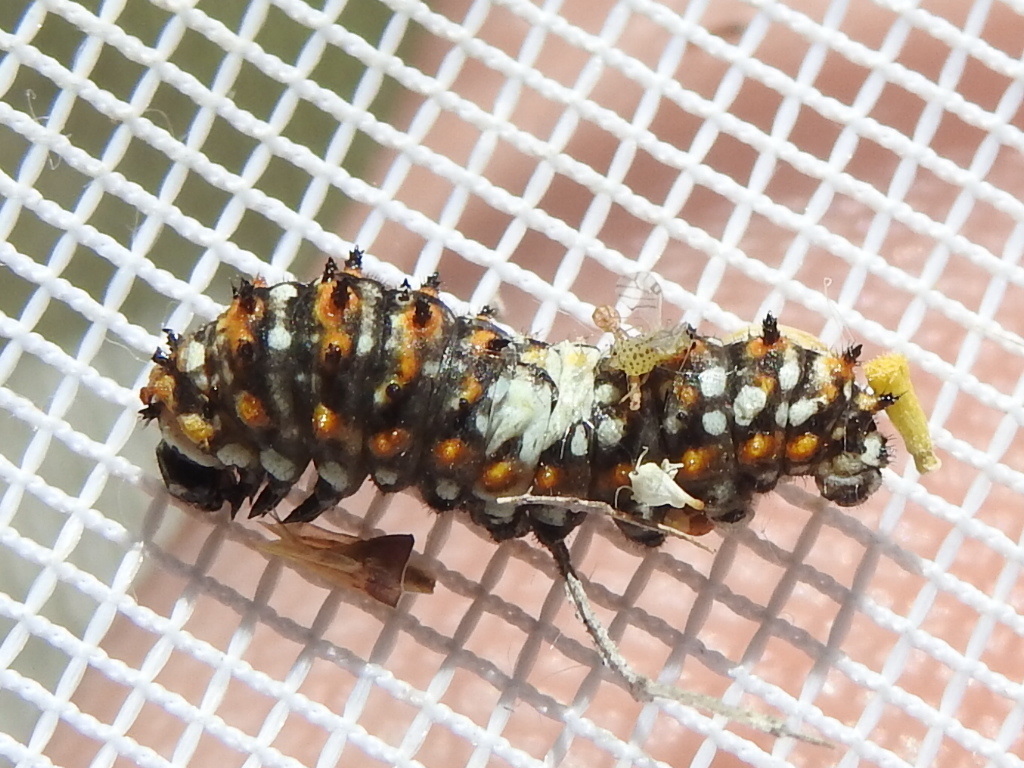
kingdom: Animalia
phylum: Arthropoda
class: Insecta
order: Lepidoptera
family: Papilionidae
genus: Papilio
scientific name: Papilio polyxenes
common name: Black swallowtail
